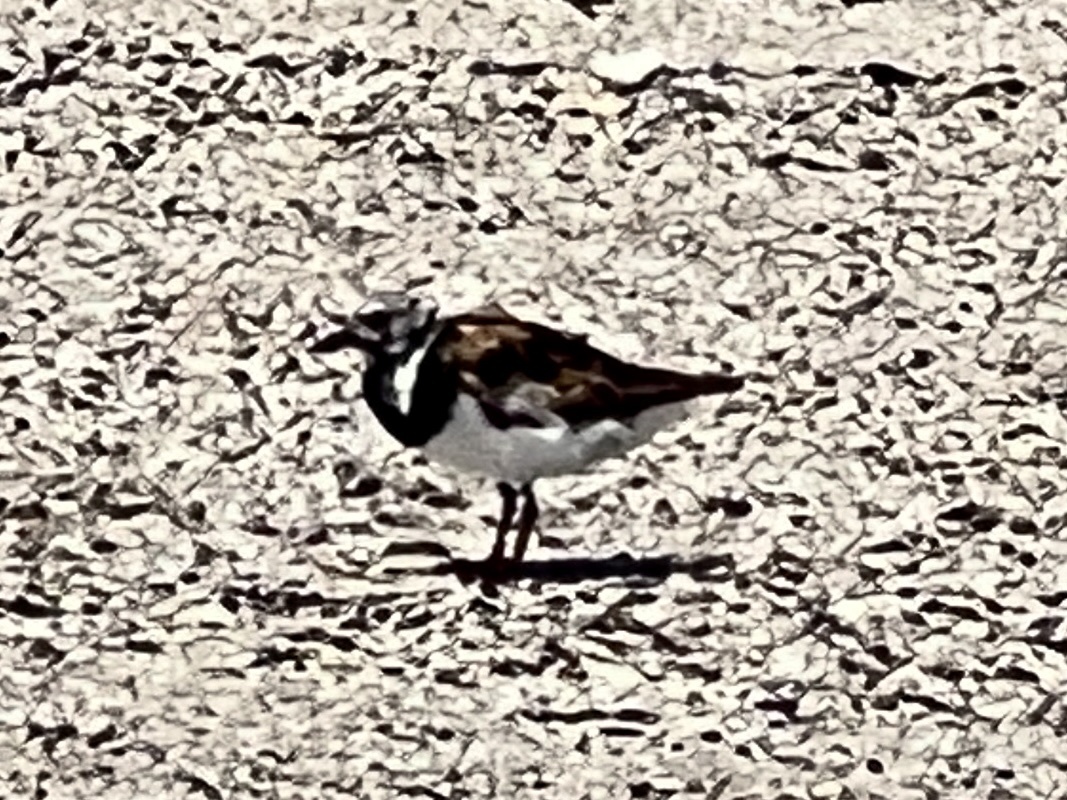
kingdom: Animalia
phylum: Chordata
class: Aves
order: Charadriiformes
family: Scolopacidae
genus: Arenaria
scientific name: Arenaria interpres
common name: Ruddy turnstone
